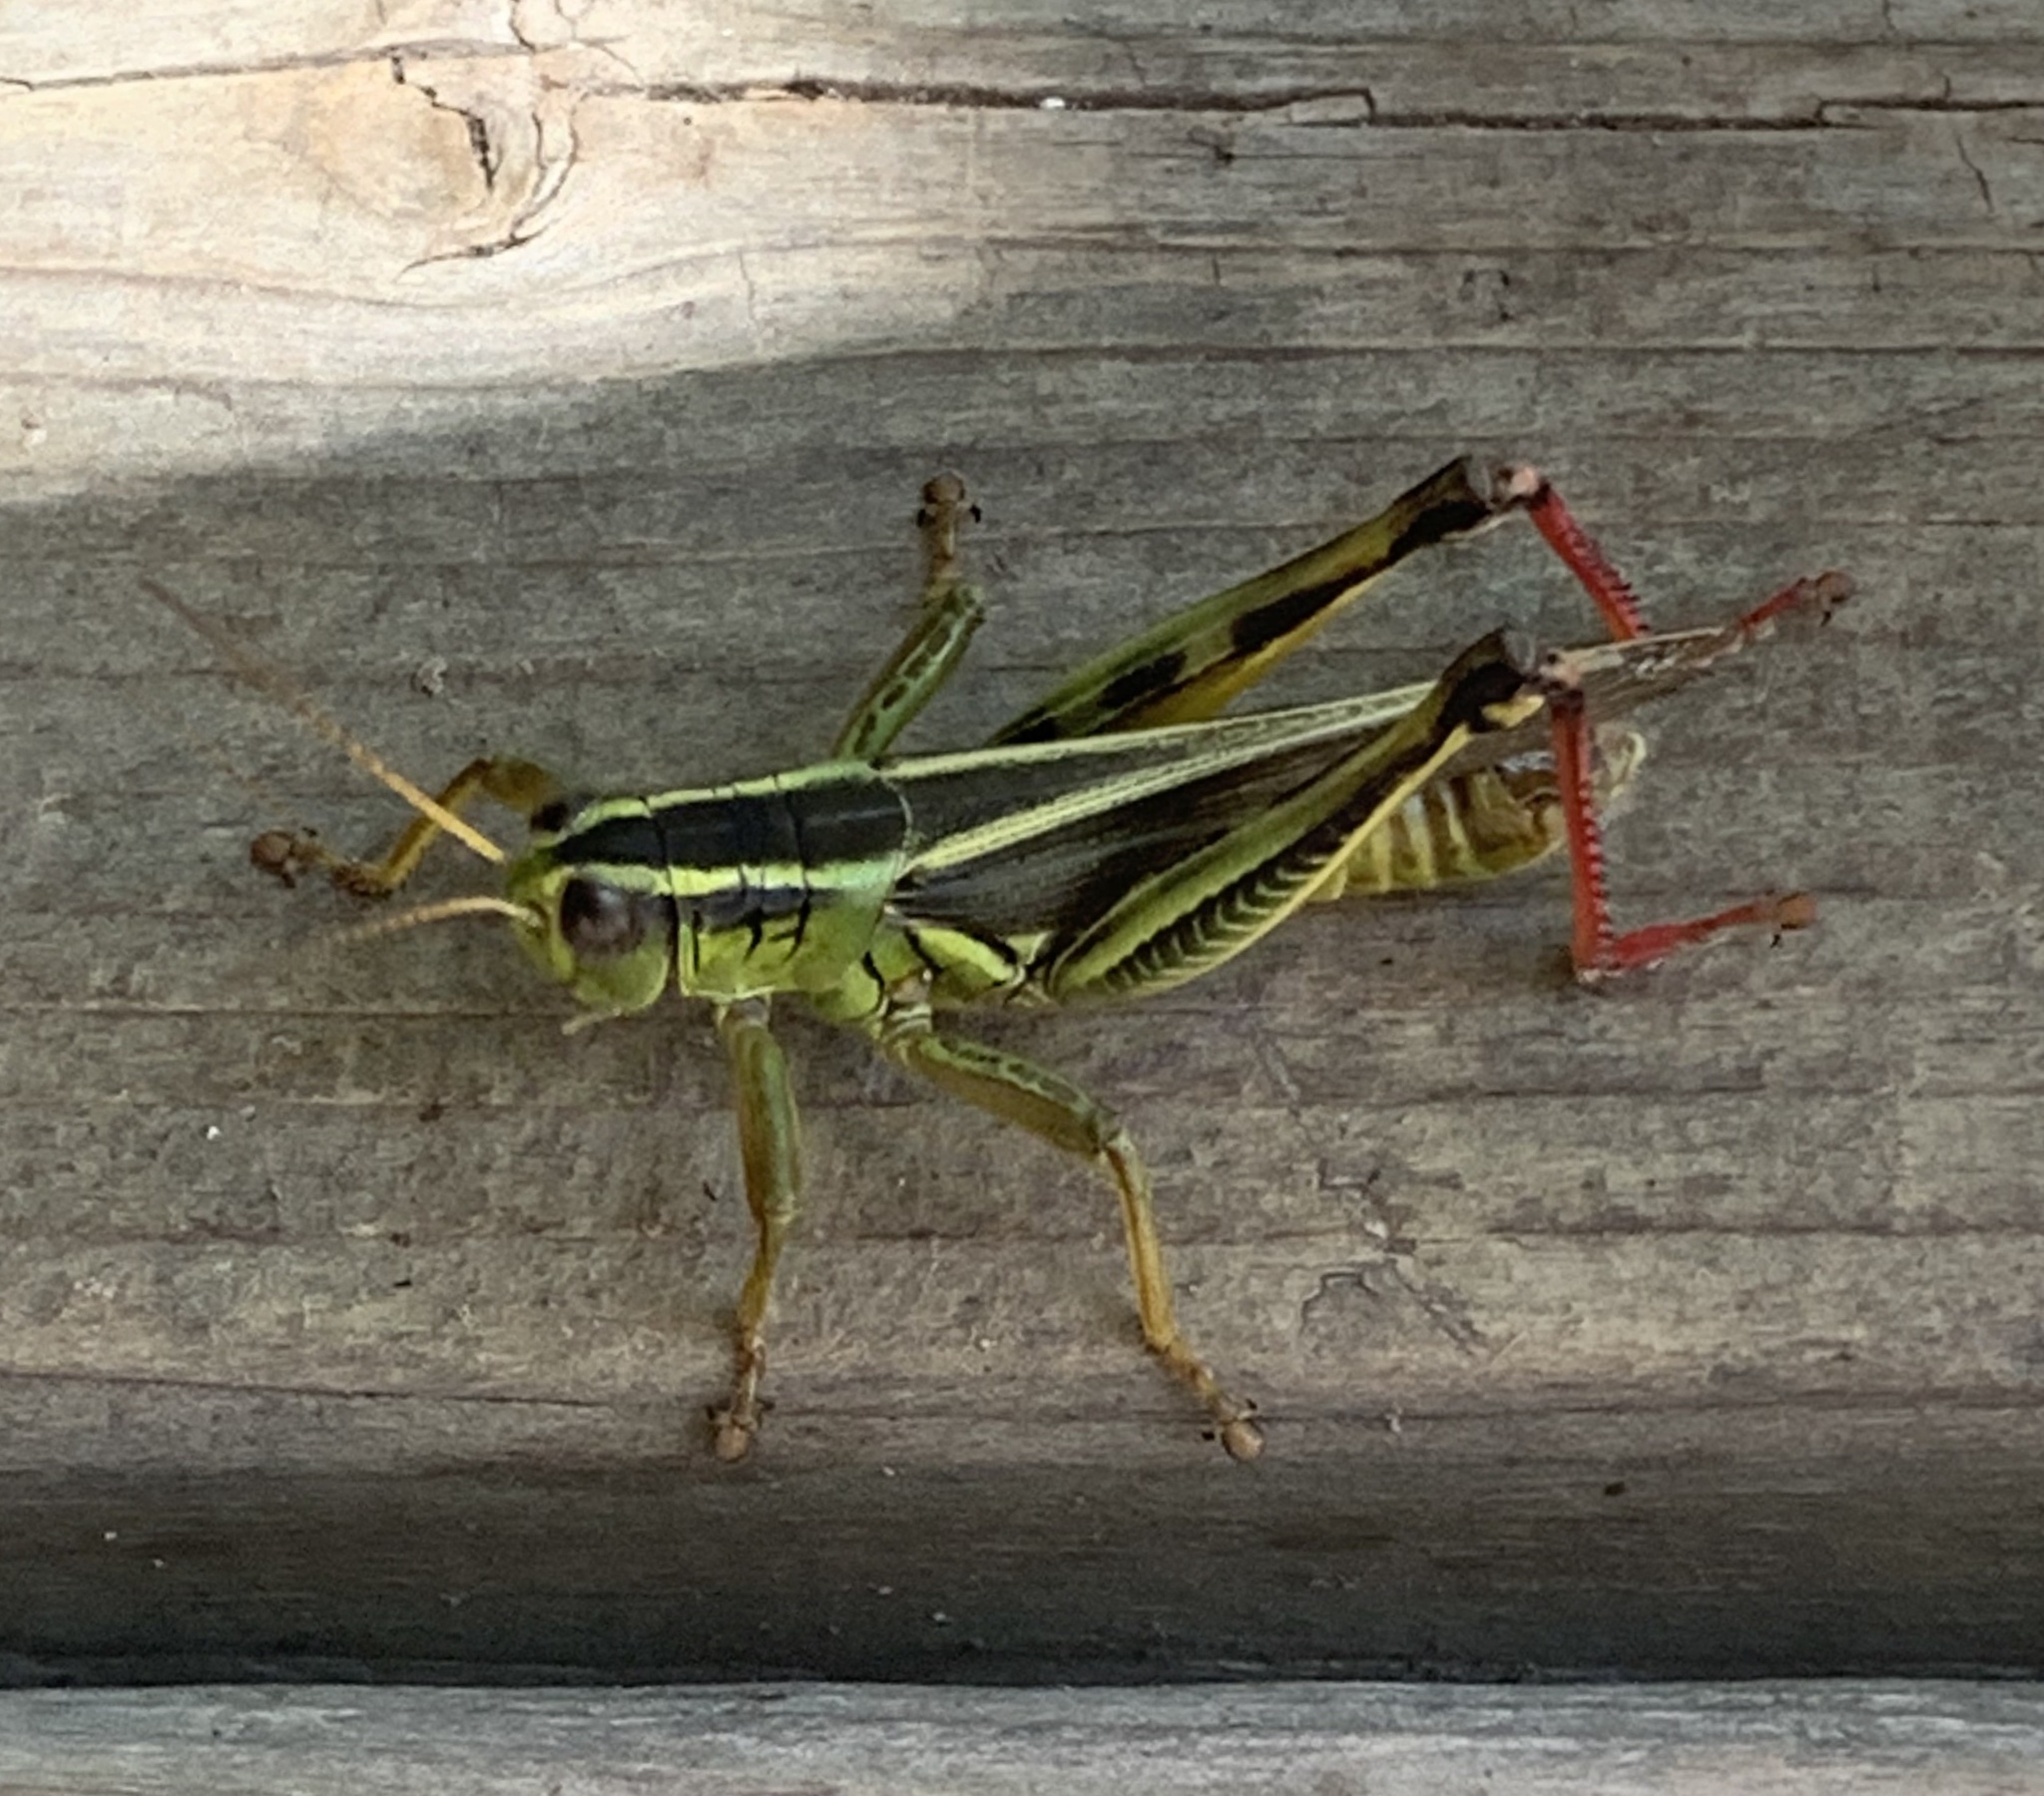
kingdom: Animalia
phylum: Arthropoda
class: Insecta
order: Orthoptera
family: Acrididae
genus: Melanoplus
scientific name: Melanoplus bivittatus
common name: Two-striped grasshopper
